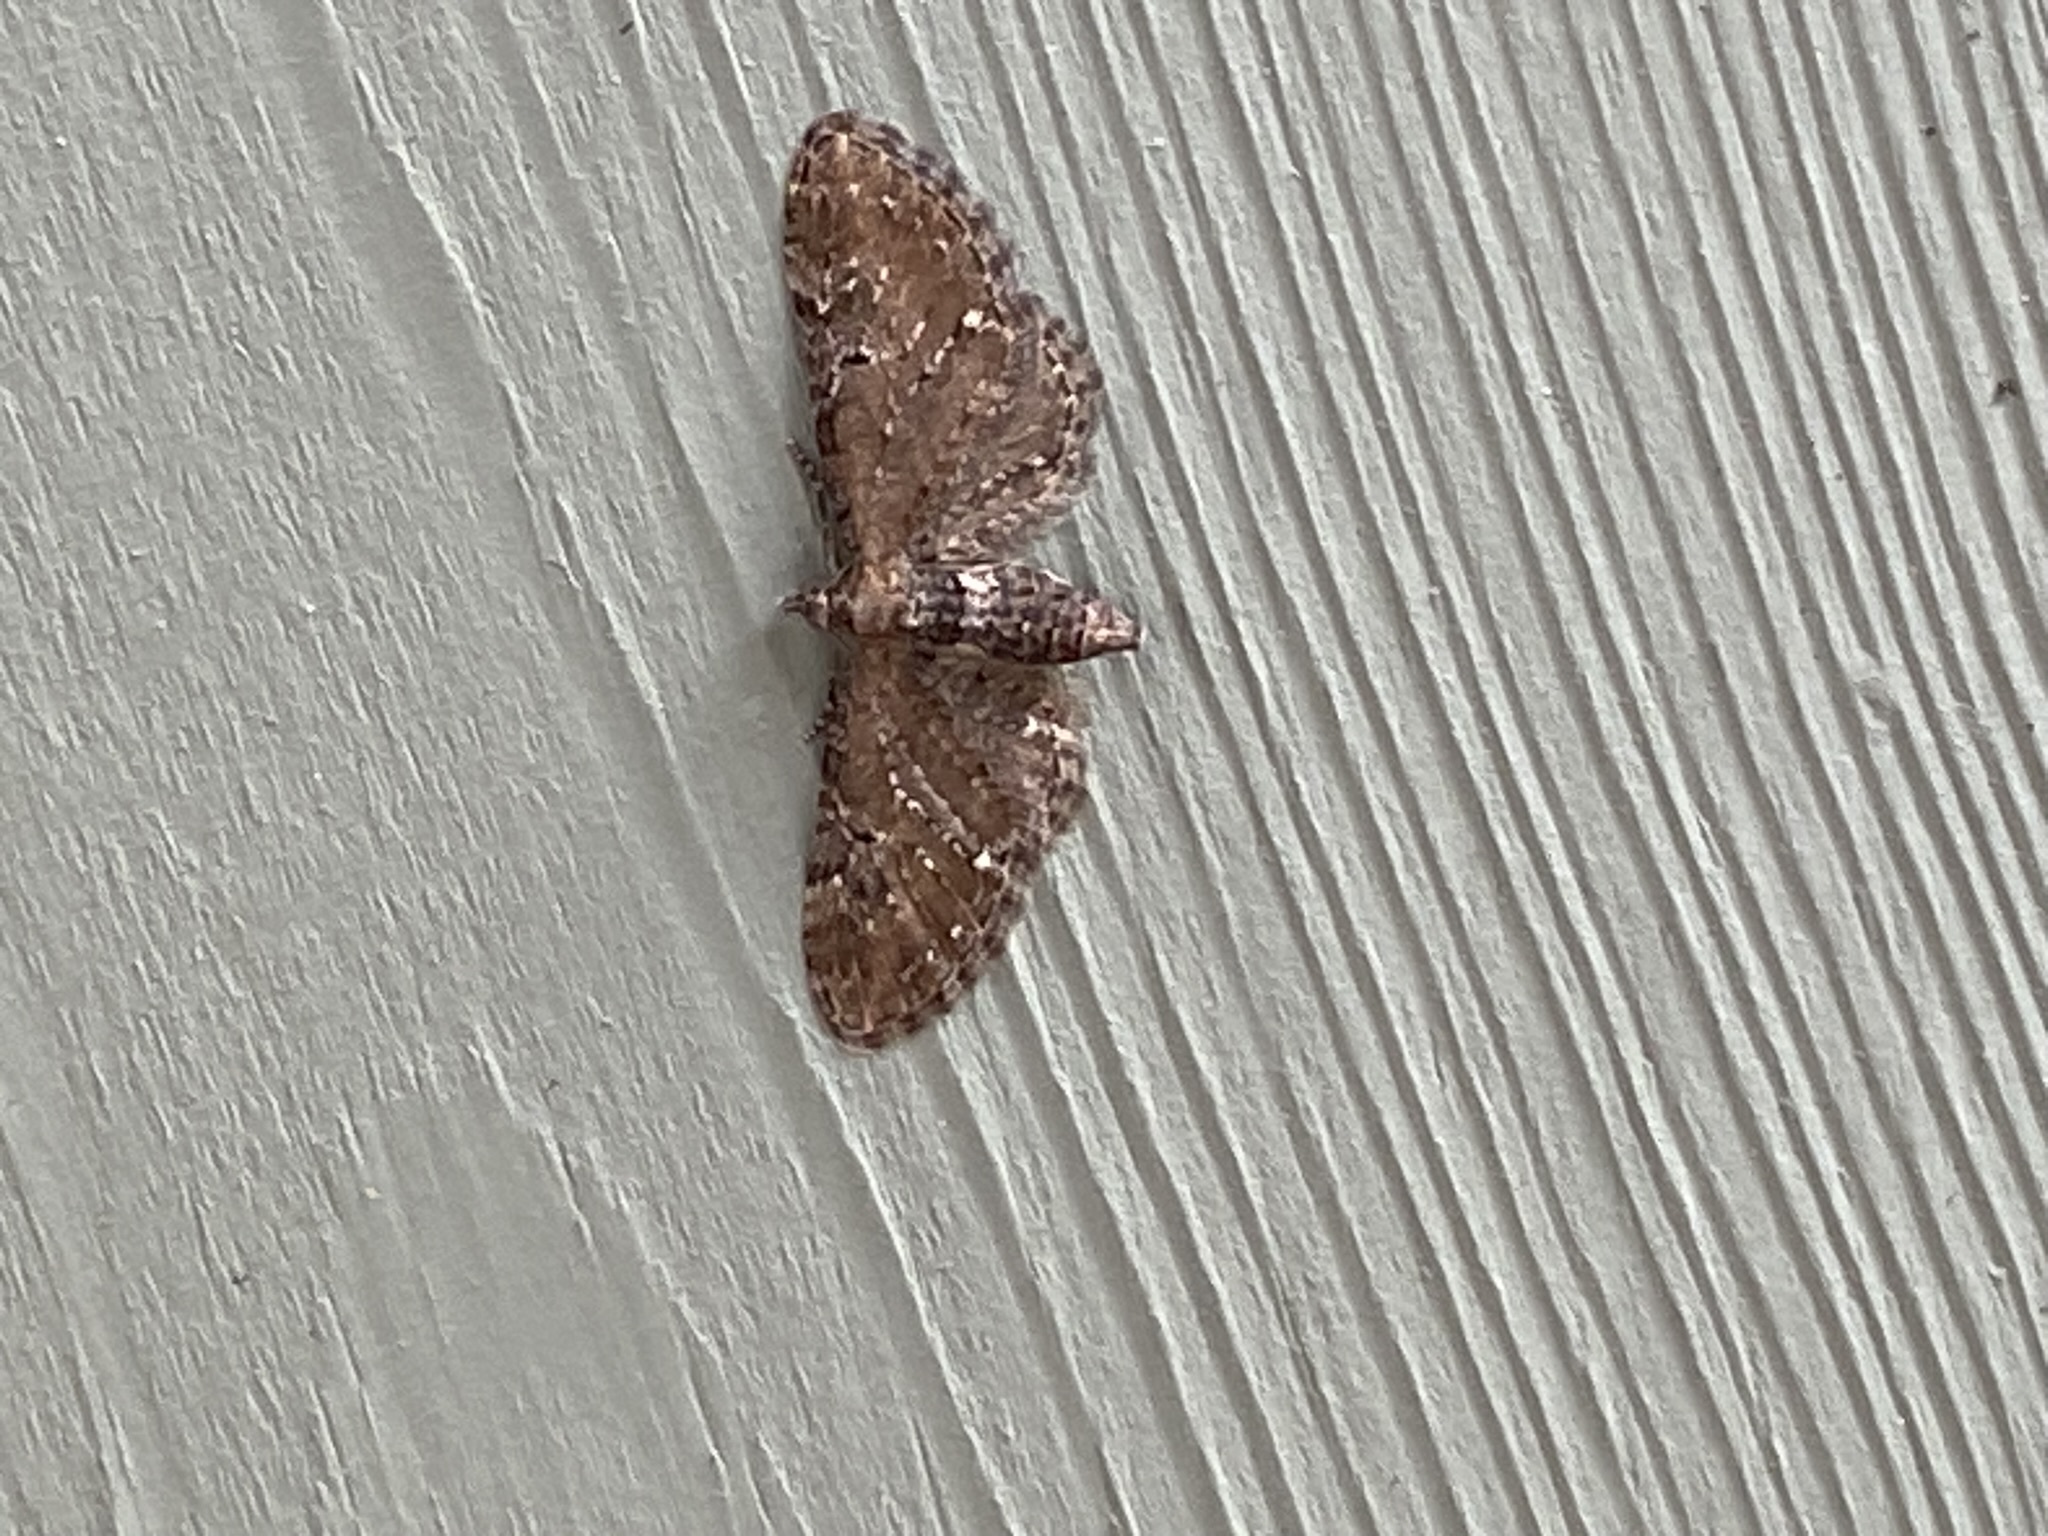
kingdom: Animalia
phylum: Arthropoda
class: Insecta
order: Lepidoptera
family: Geometridae
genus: Eupithecia
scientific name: Eupithecia vulgata
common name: Common pug
